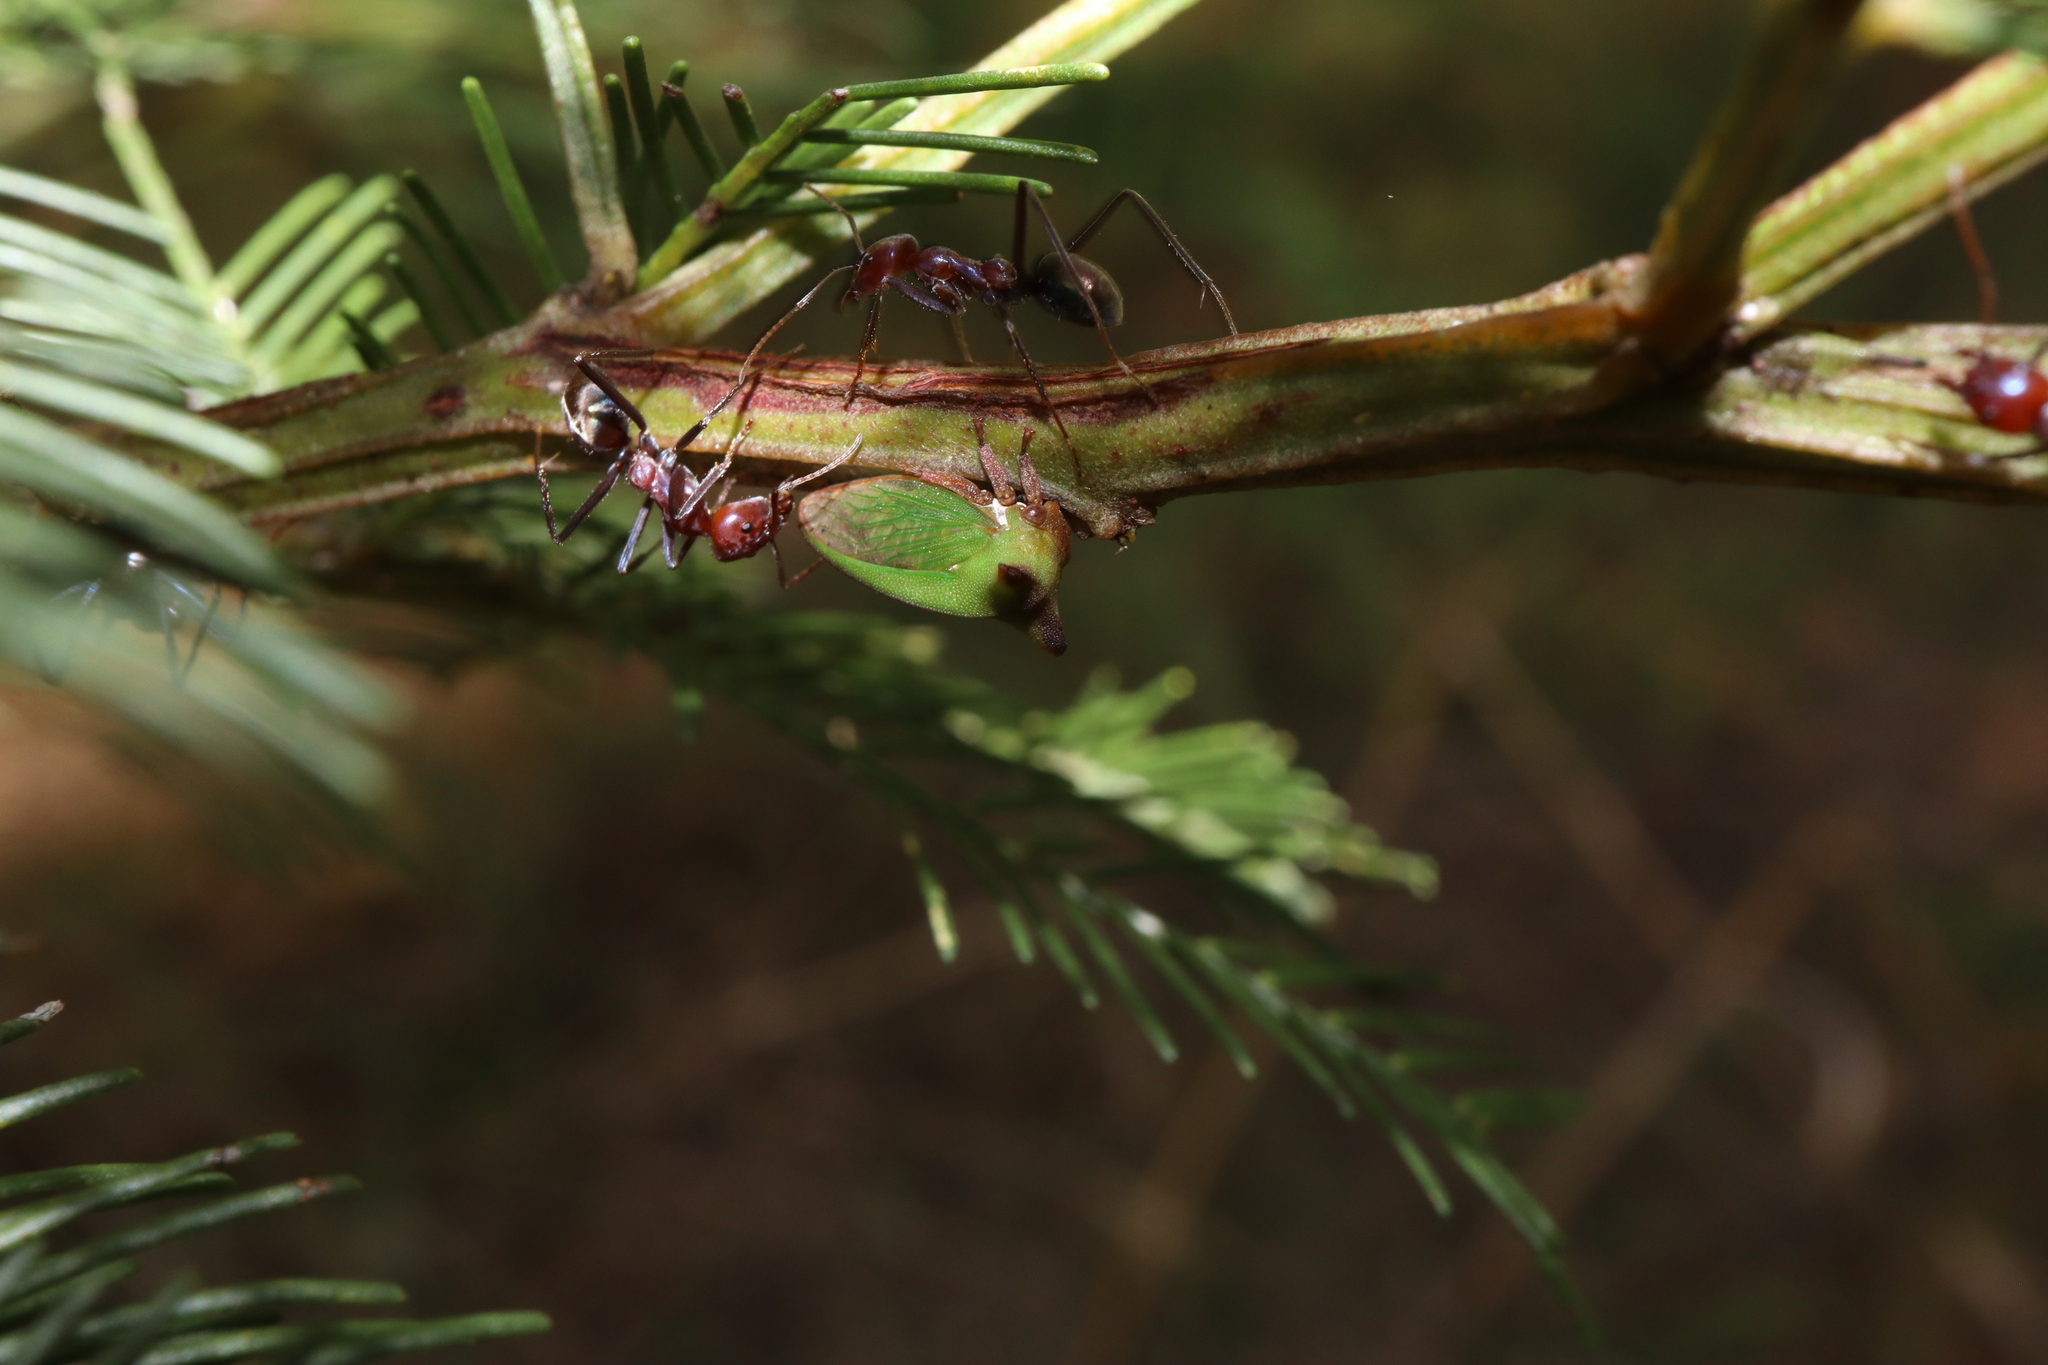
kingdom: Animalia
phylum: Arthropoda
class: Insecta
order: Hemiptera
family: Membracidae
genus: Sextius
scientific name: Sextius virescens
